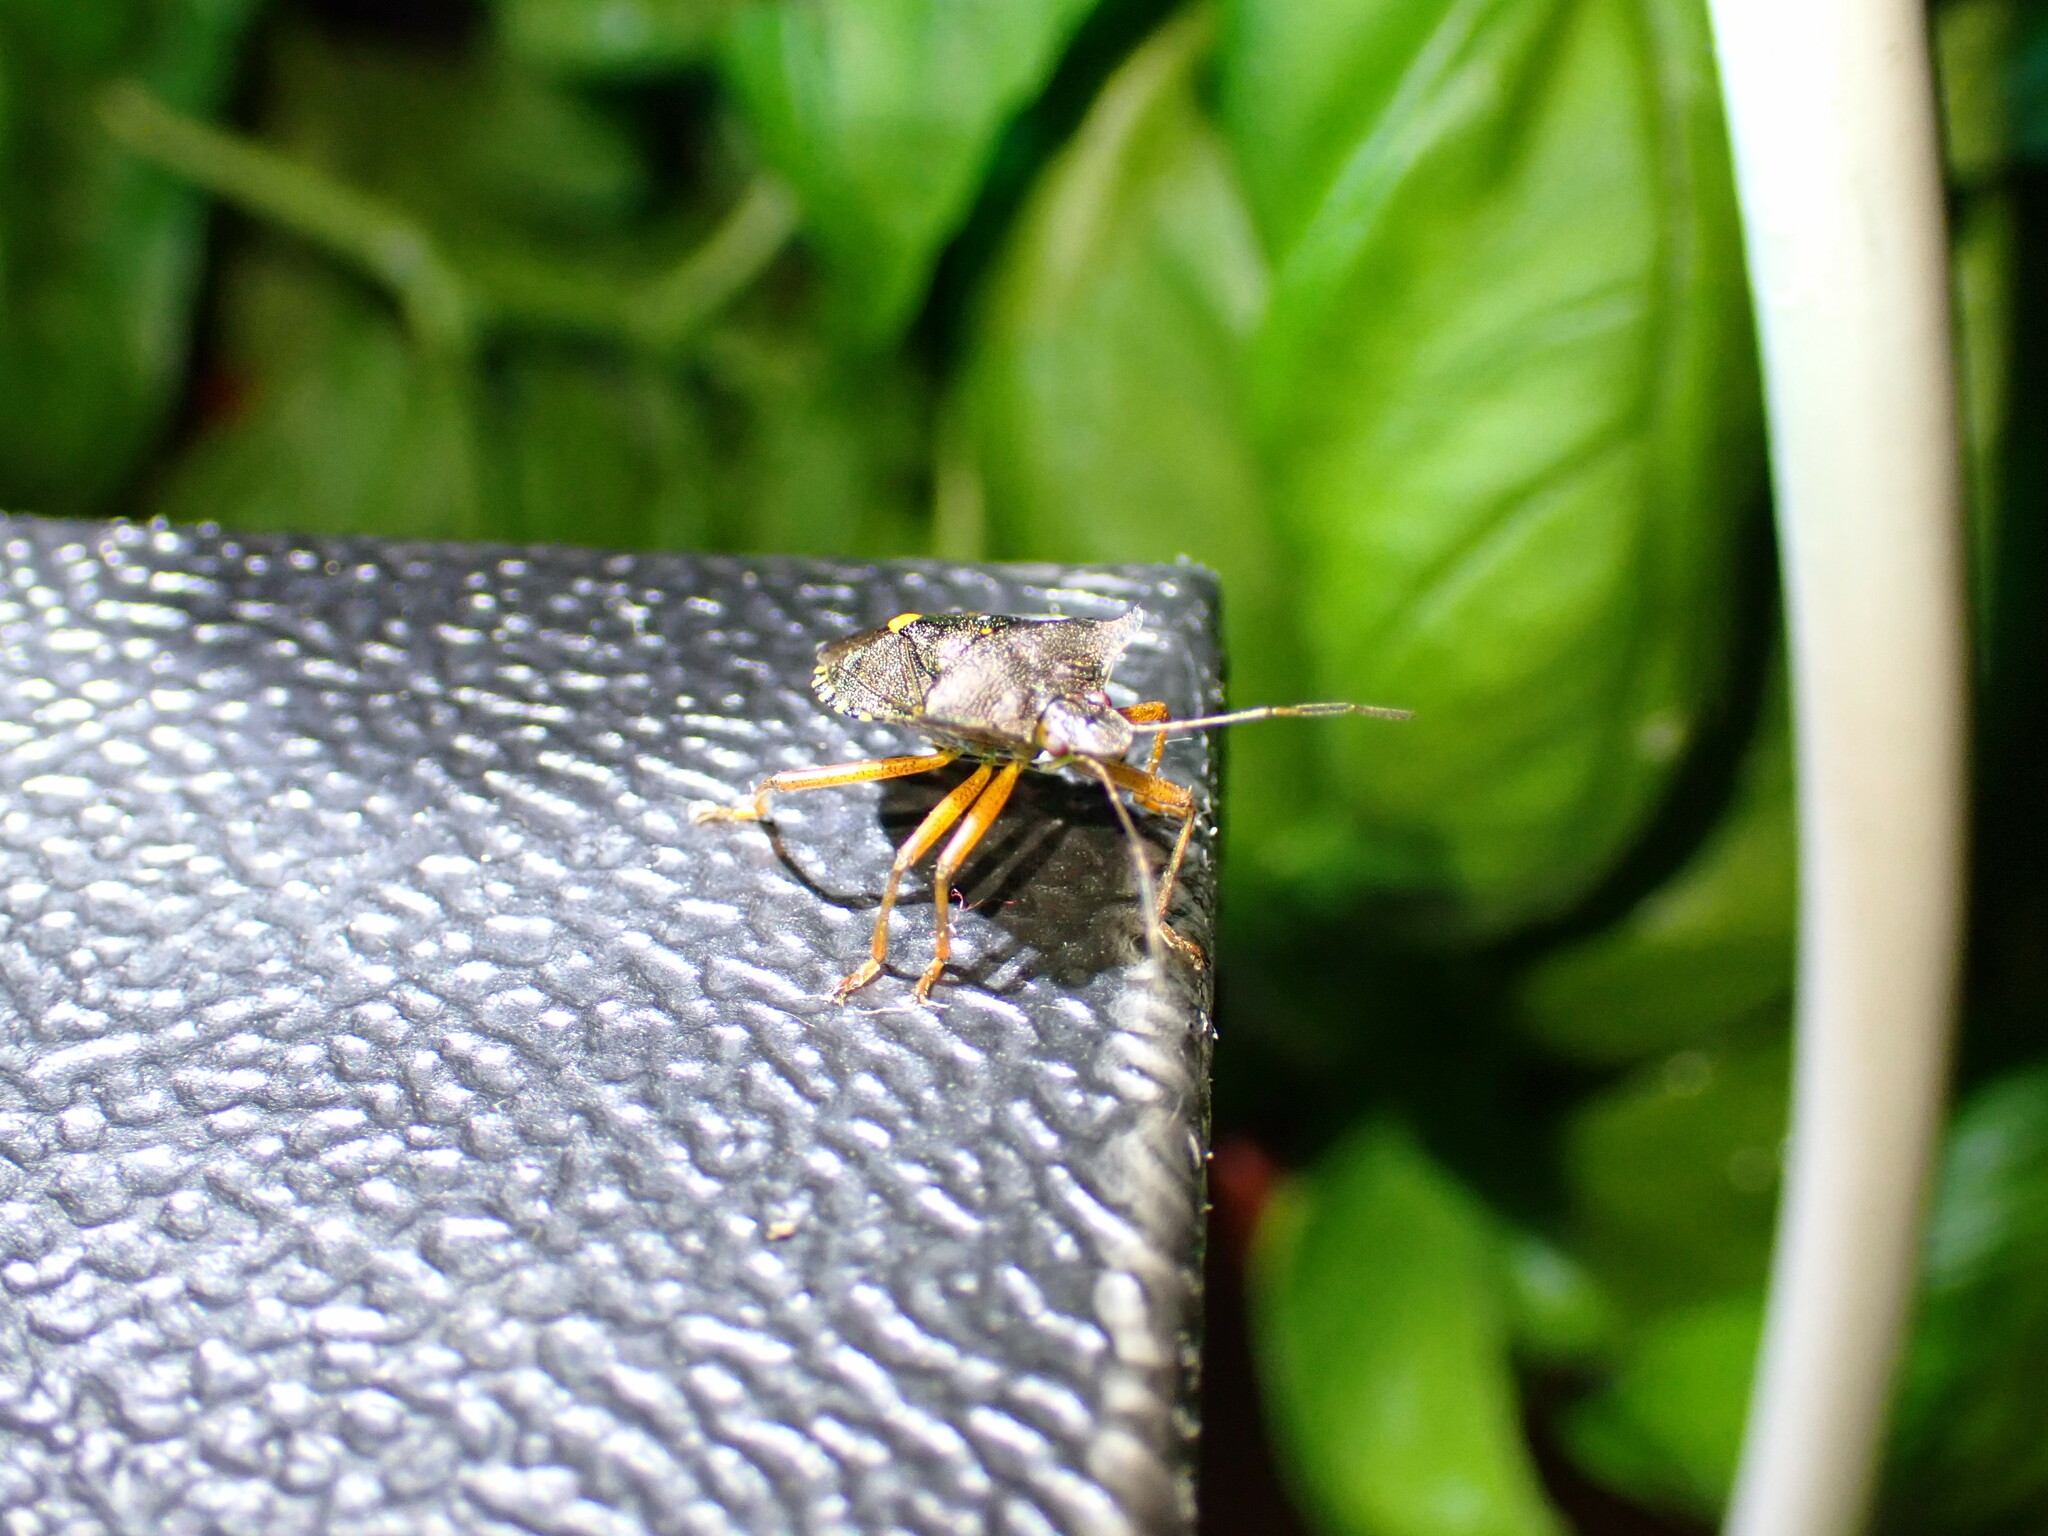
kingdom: Animalia
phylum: Arthropoda
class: Insecta
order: Hemiptera
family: Pentatomidae
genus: Pentatoma
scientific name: Pentatoma rufipes
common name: Forest bug
